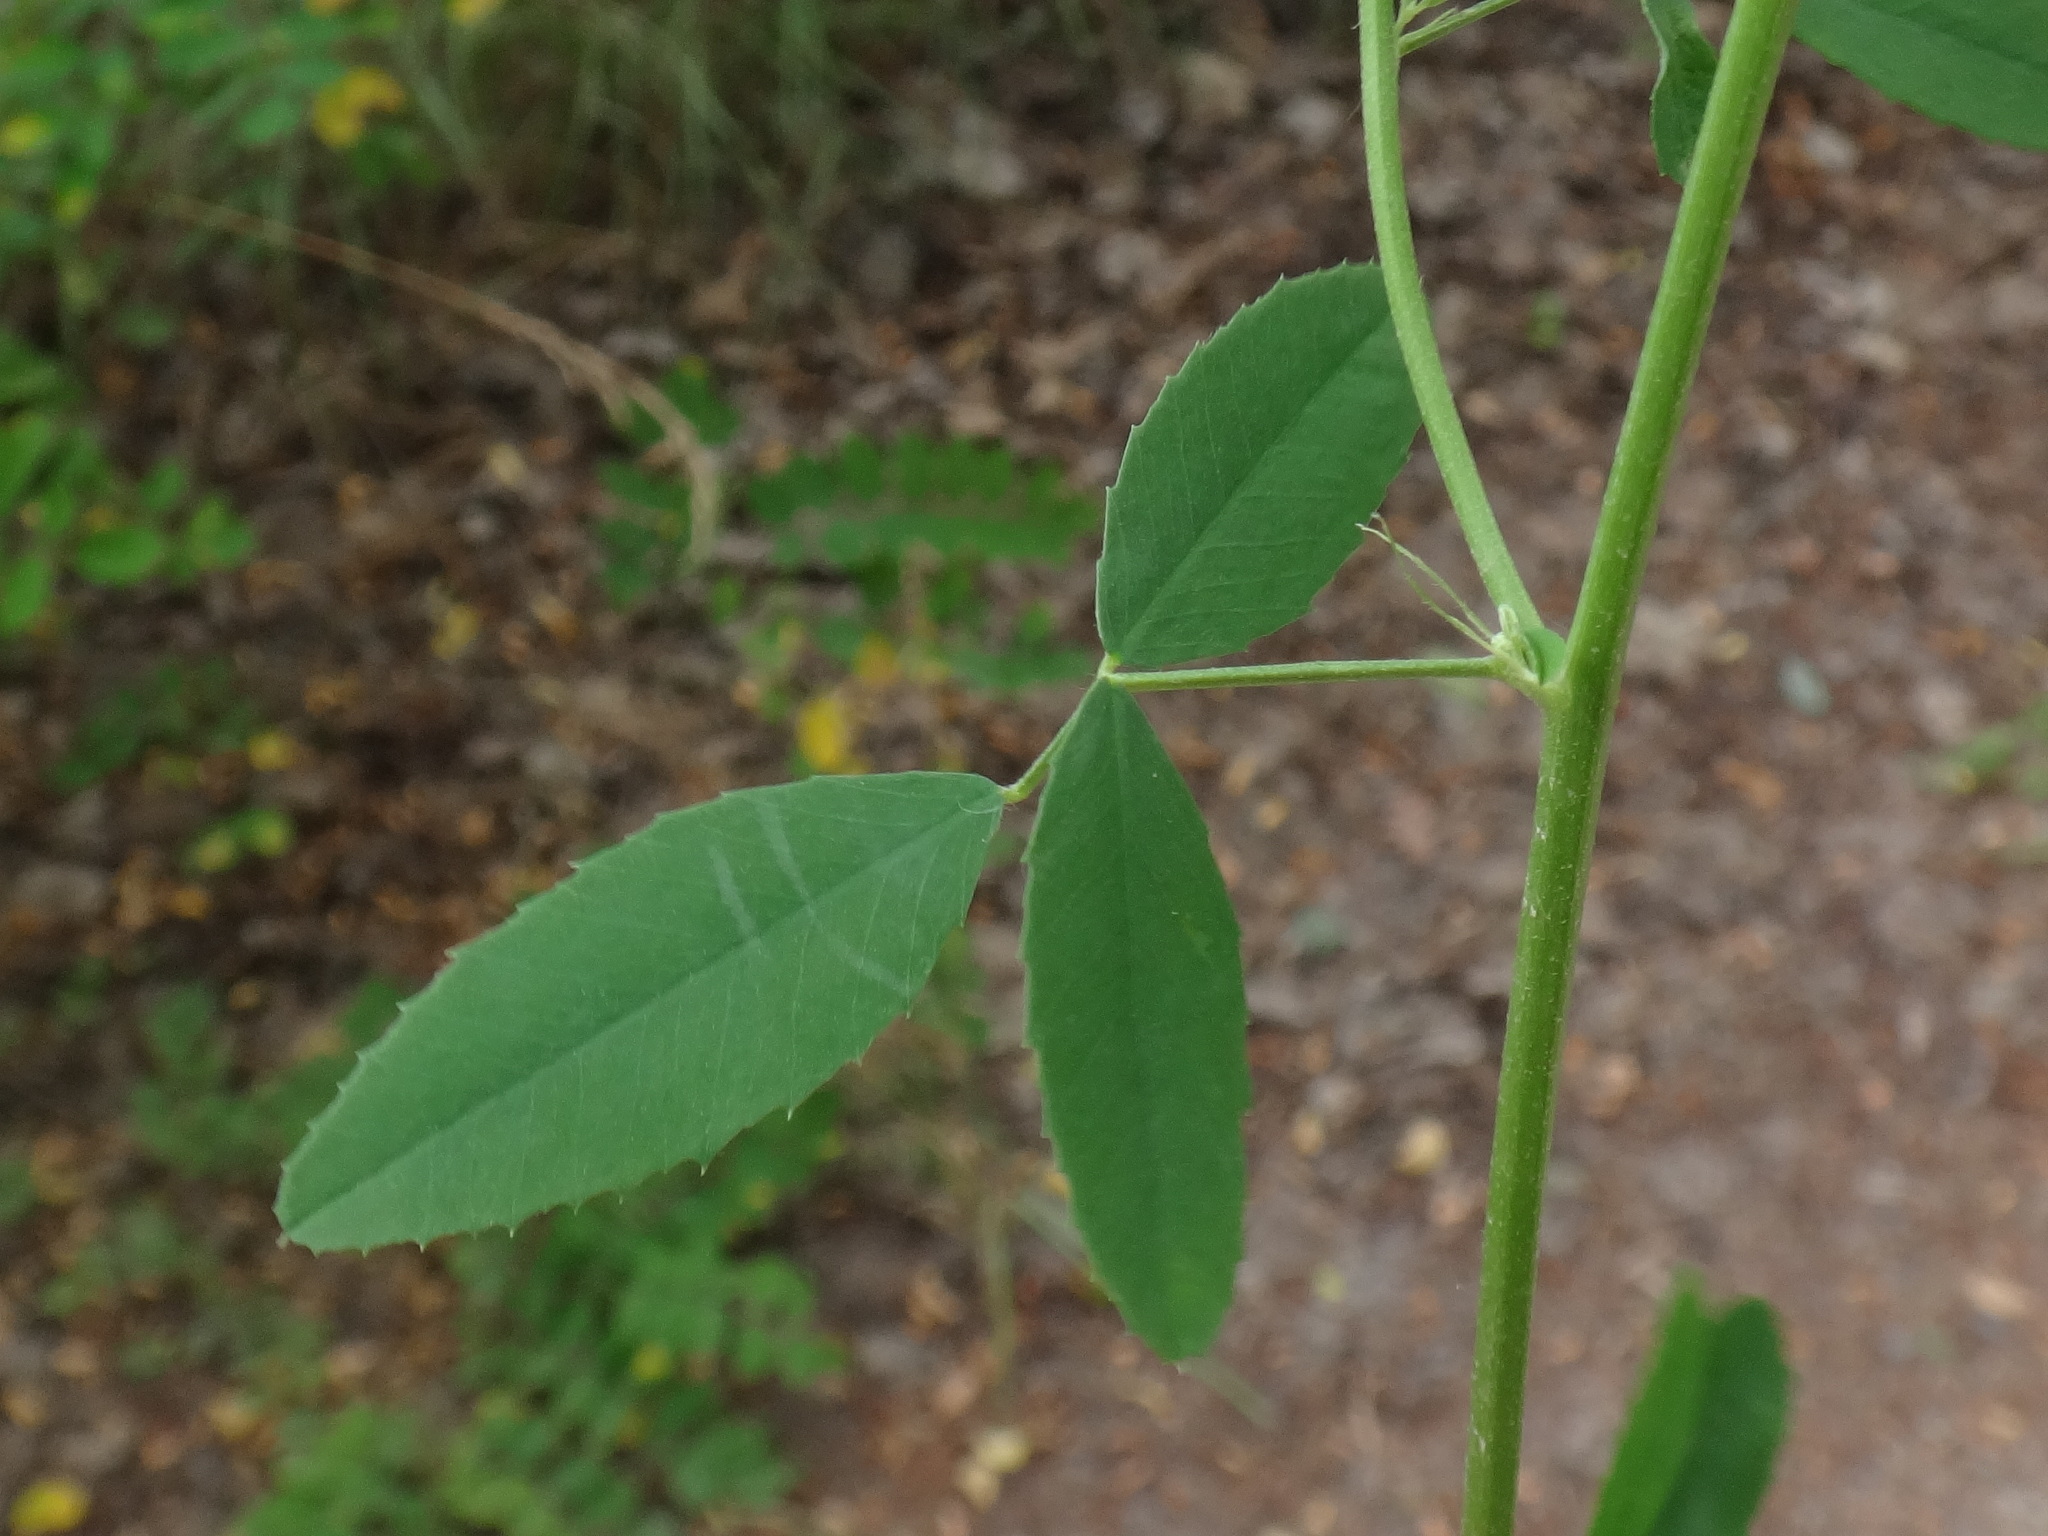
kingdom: Plantae
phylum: Tracheophyta
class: Magnoliopsida
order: Fabales
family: Fabaceae
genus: Melilotus
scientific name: Melilotus albus
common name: White melilot
